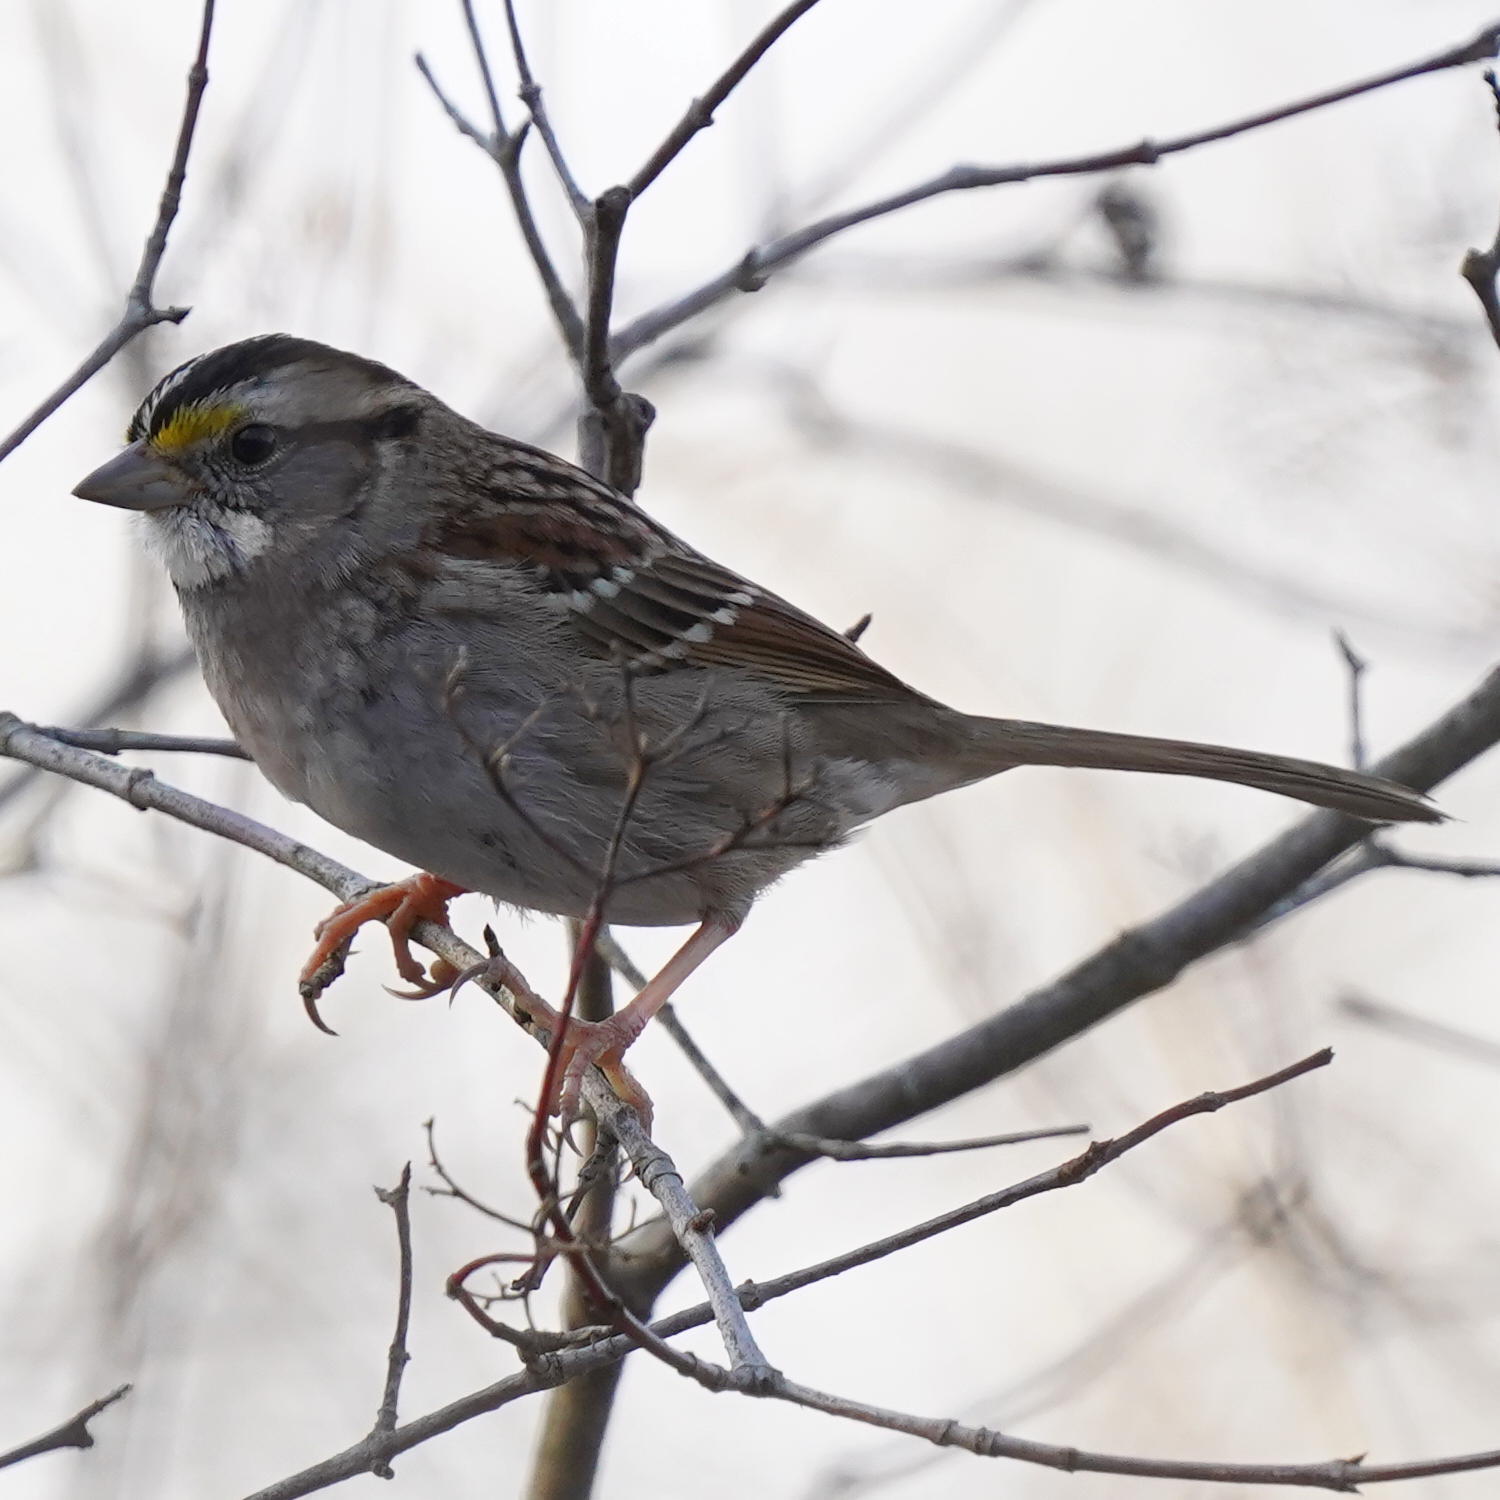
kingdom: Animalia
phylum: Chordata
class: Aves
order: Passeriformes
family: Passerellidae
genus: Zonotrichia
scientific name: Zonotrichia albicollis
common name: White-throated sparrow
